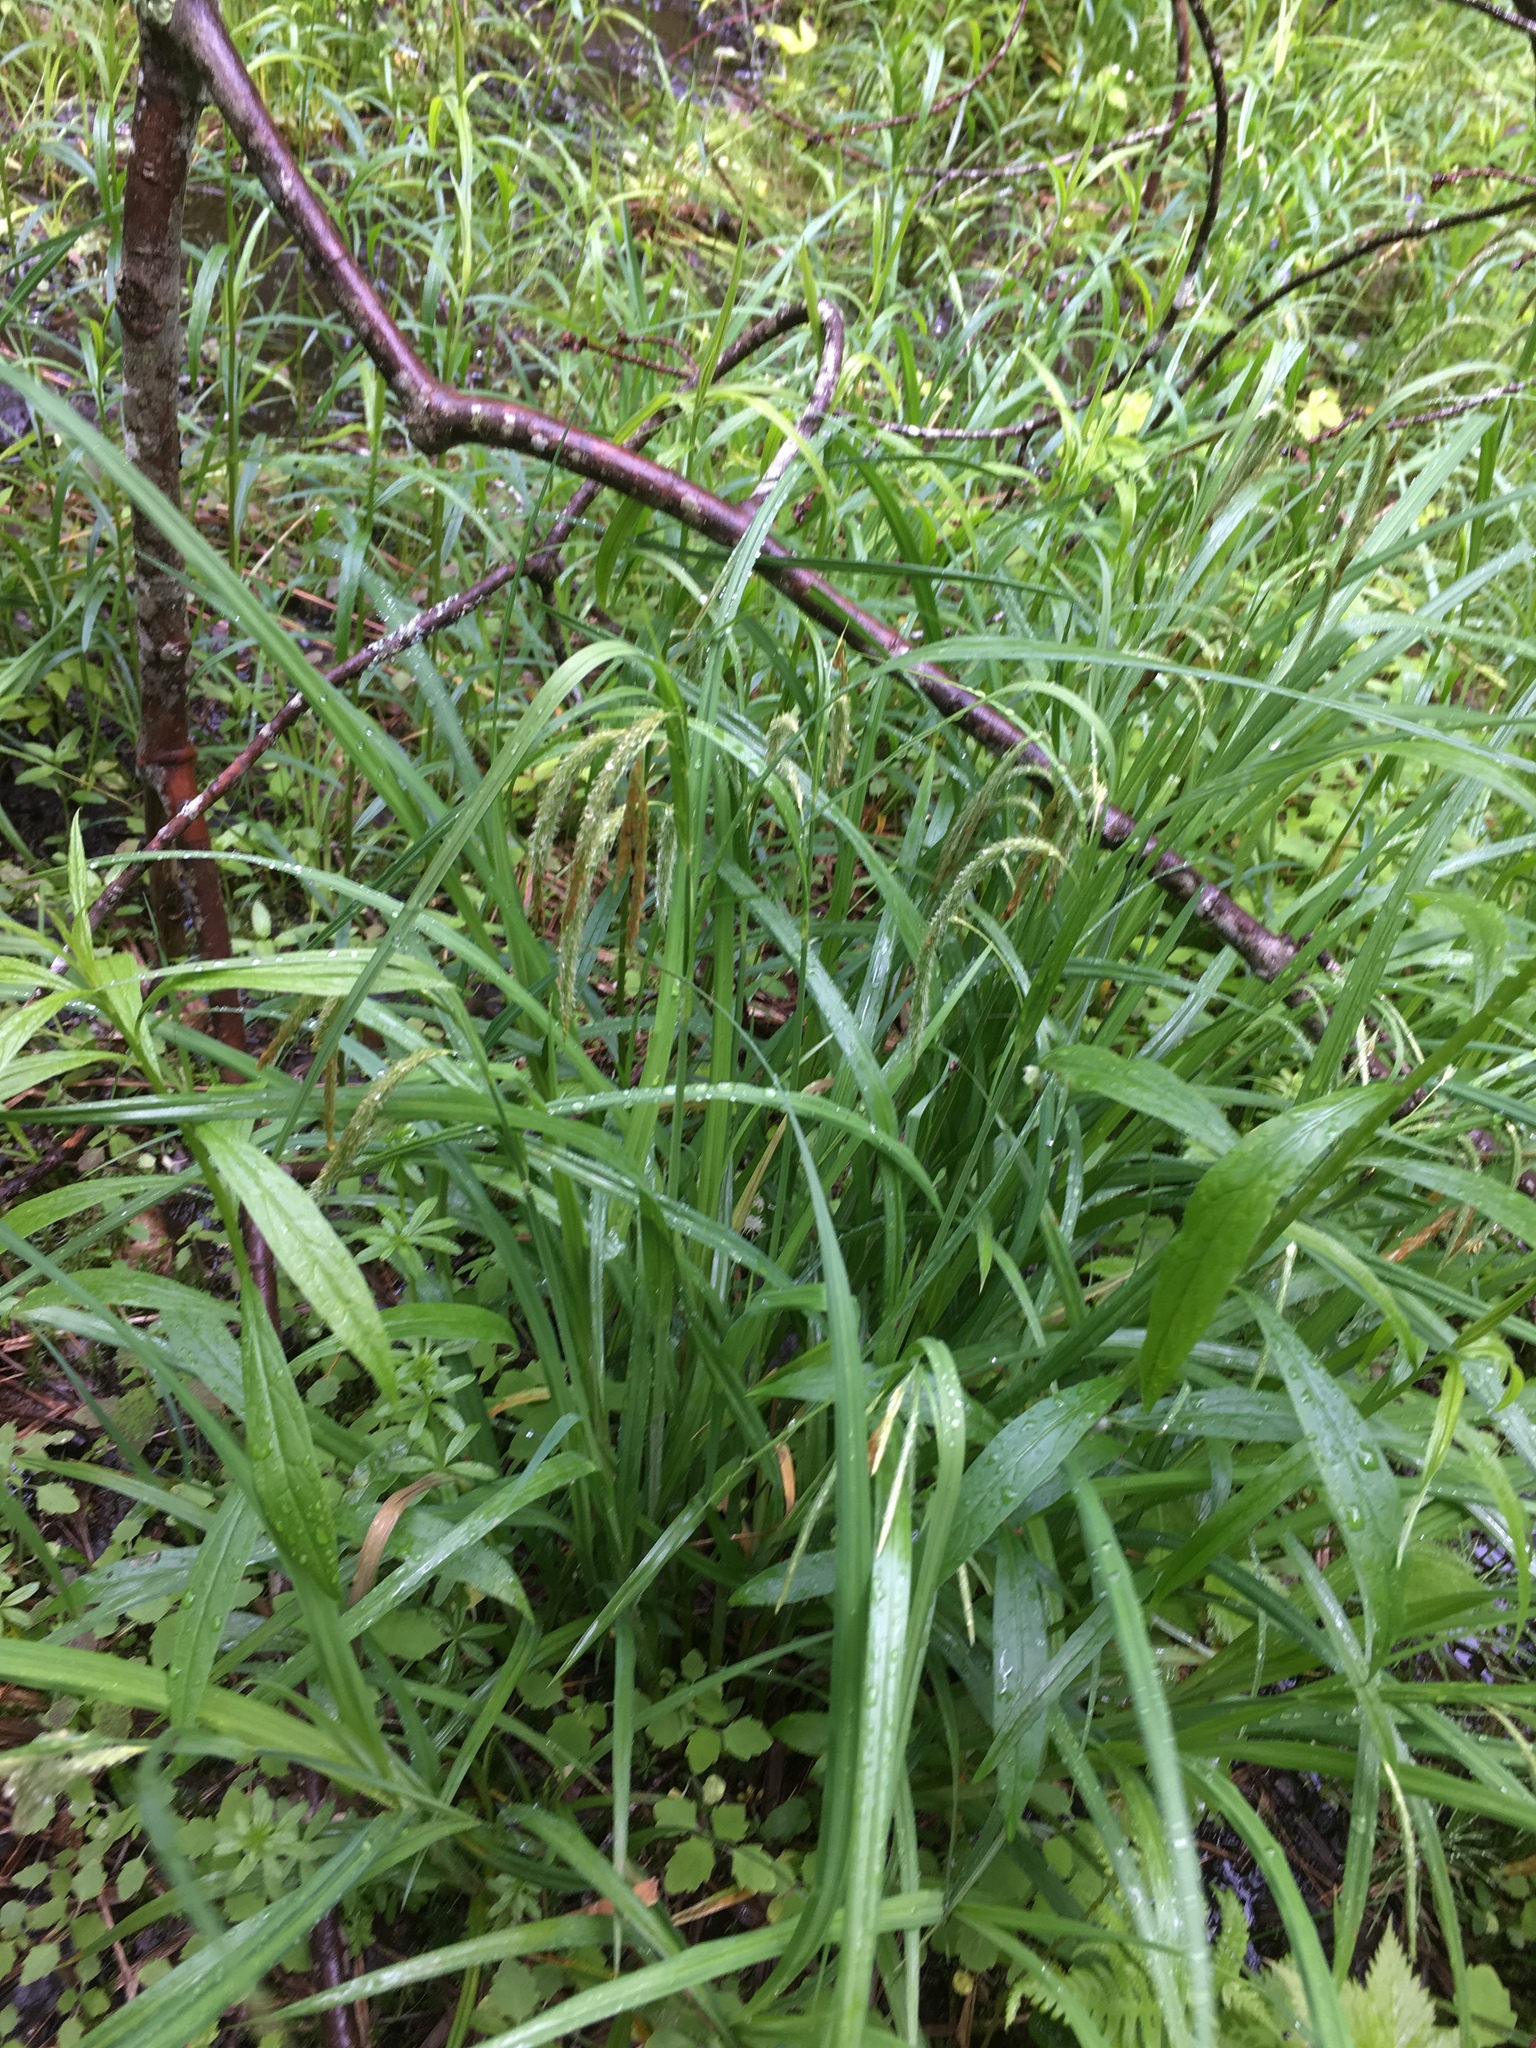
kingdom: Plantae
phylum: Tracheophyta
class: Liliopsida
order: Poales
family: Cyperaceae
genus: Carex
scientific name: Carex gynandra
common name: Nodding sedge
